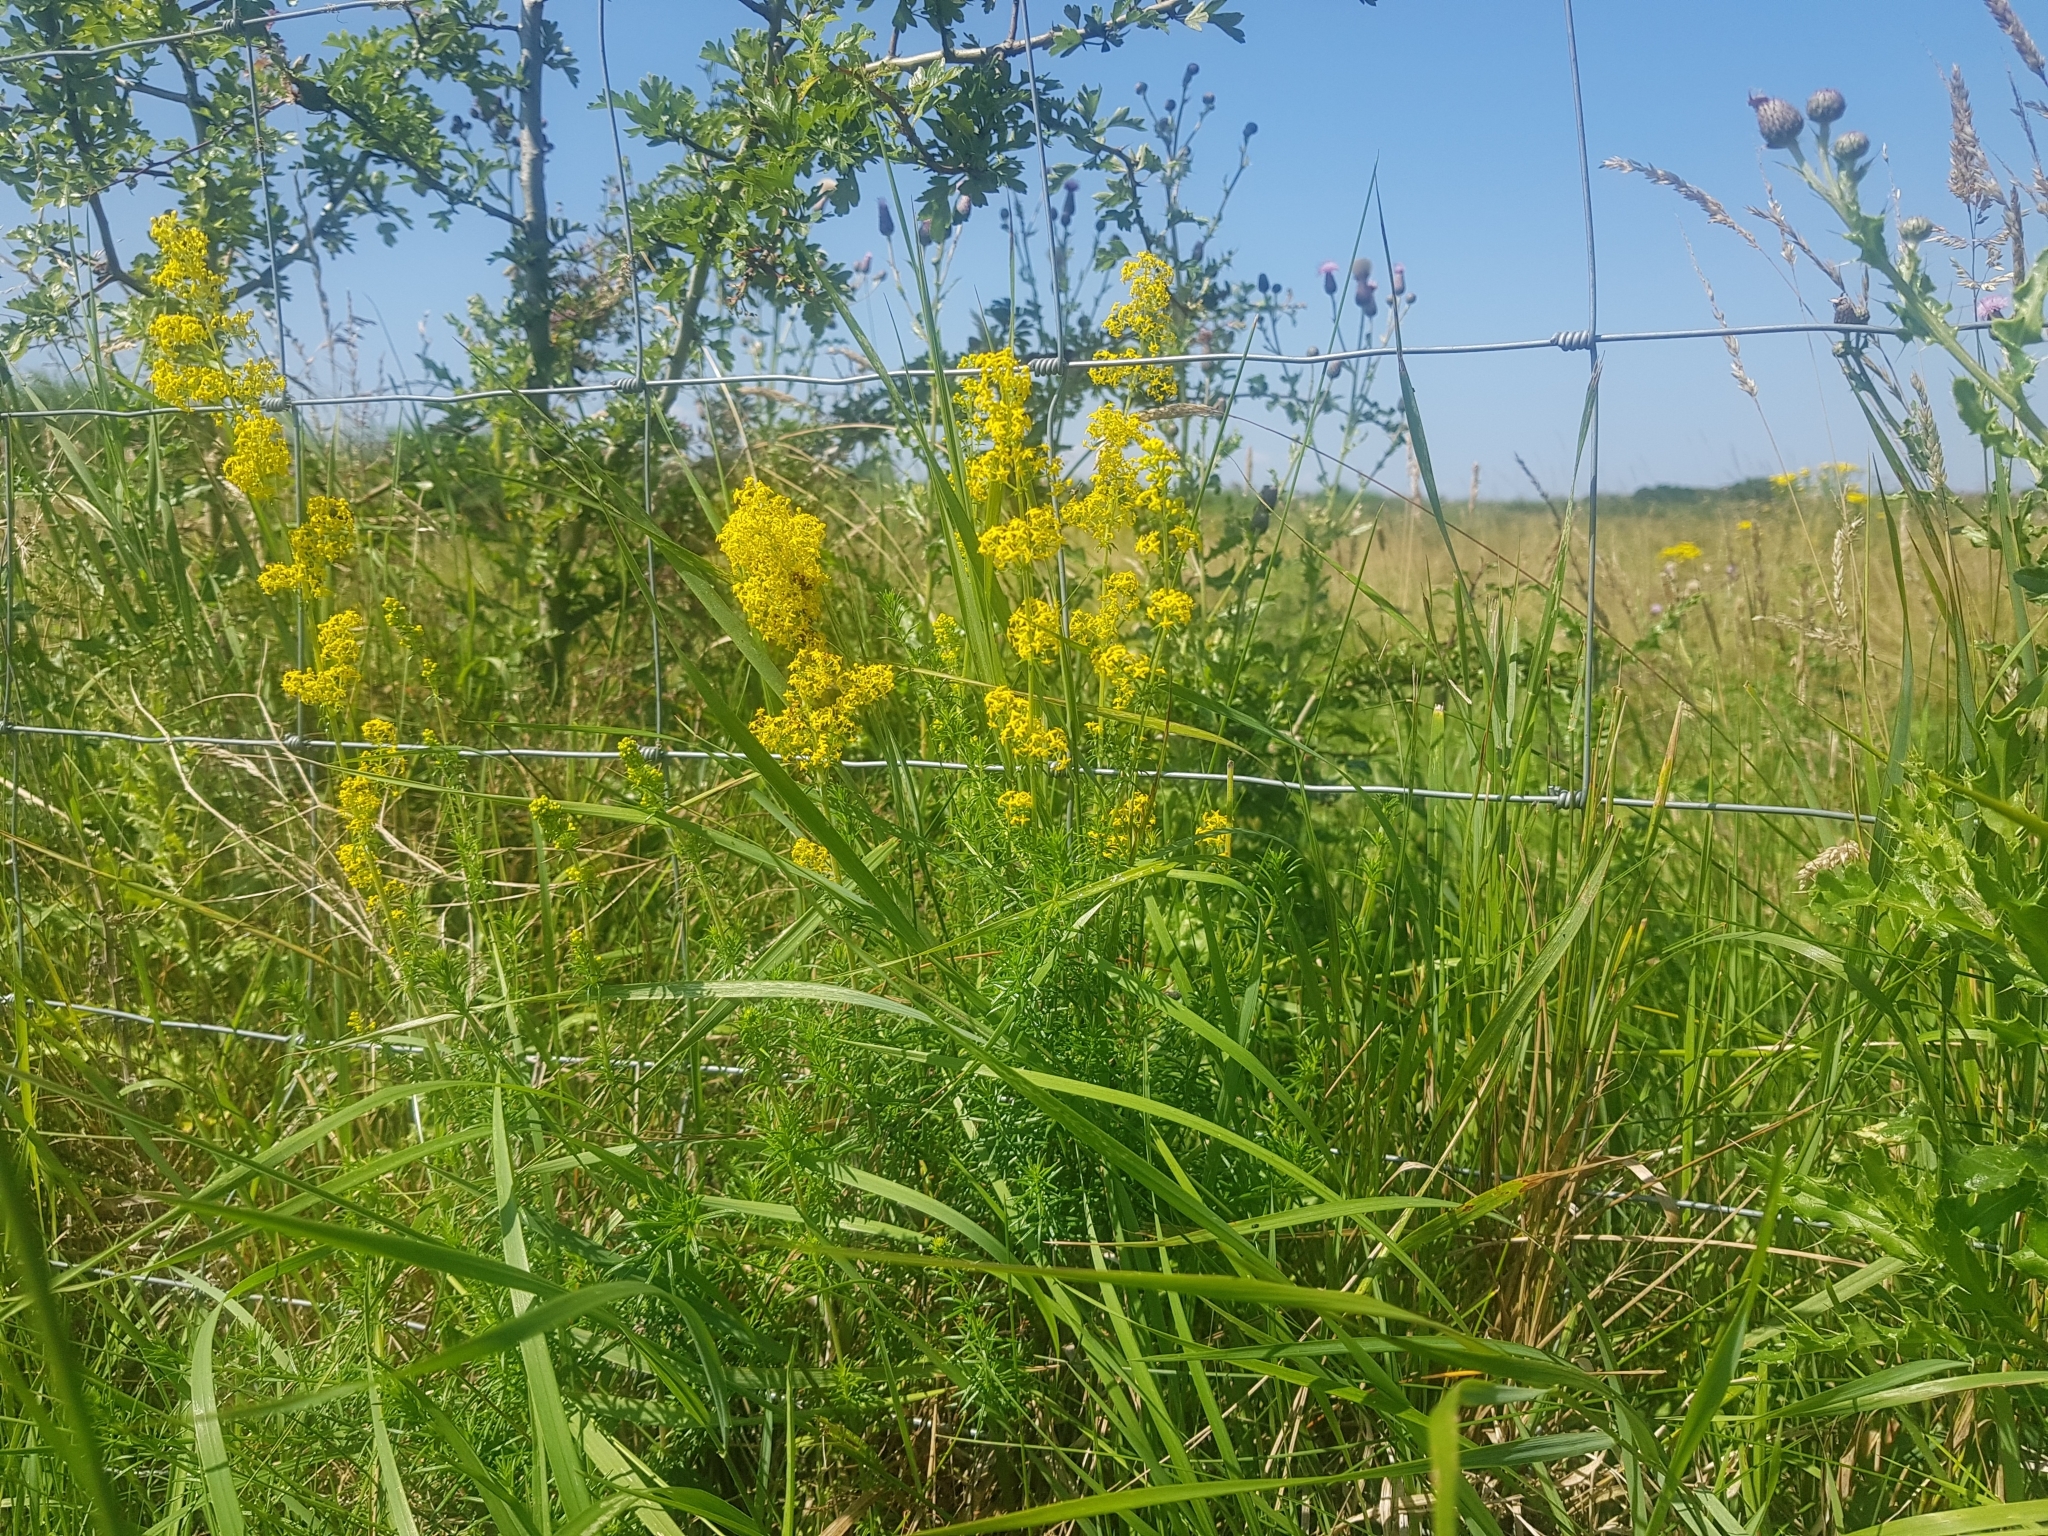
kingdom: Plantae
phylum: Tracheophyta
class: Magnoliopsida
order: Gentianales
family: Rubiaceae
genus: Galium
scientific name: Galium verum
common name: Lady's bedstraw
